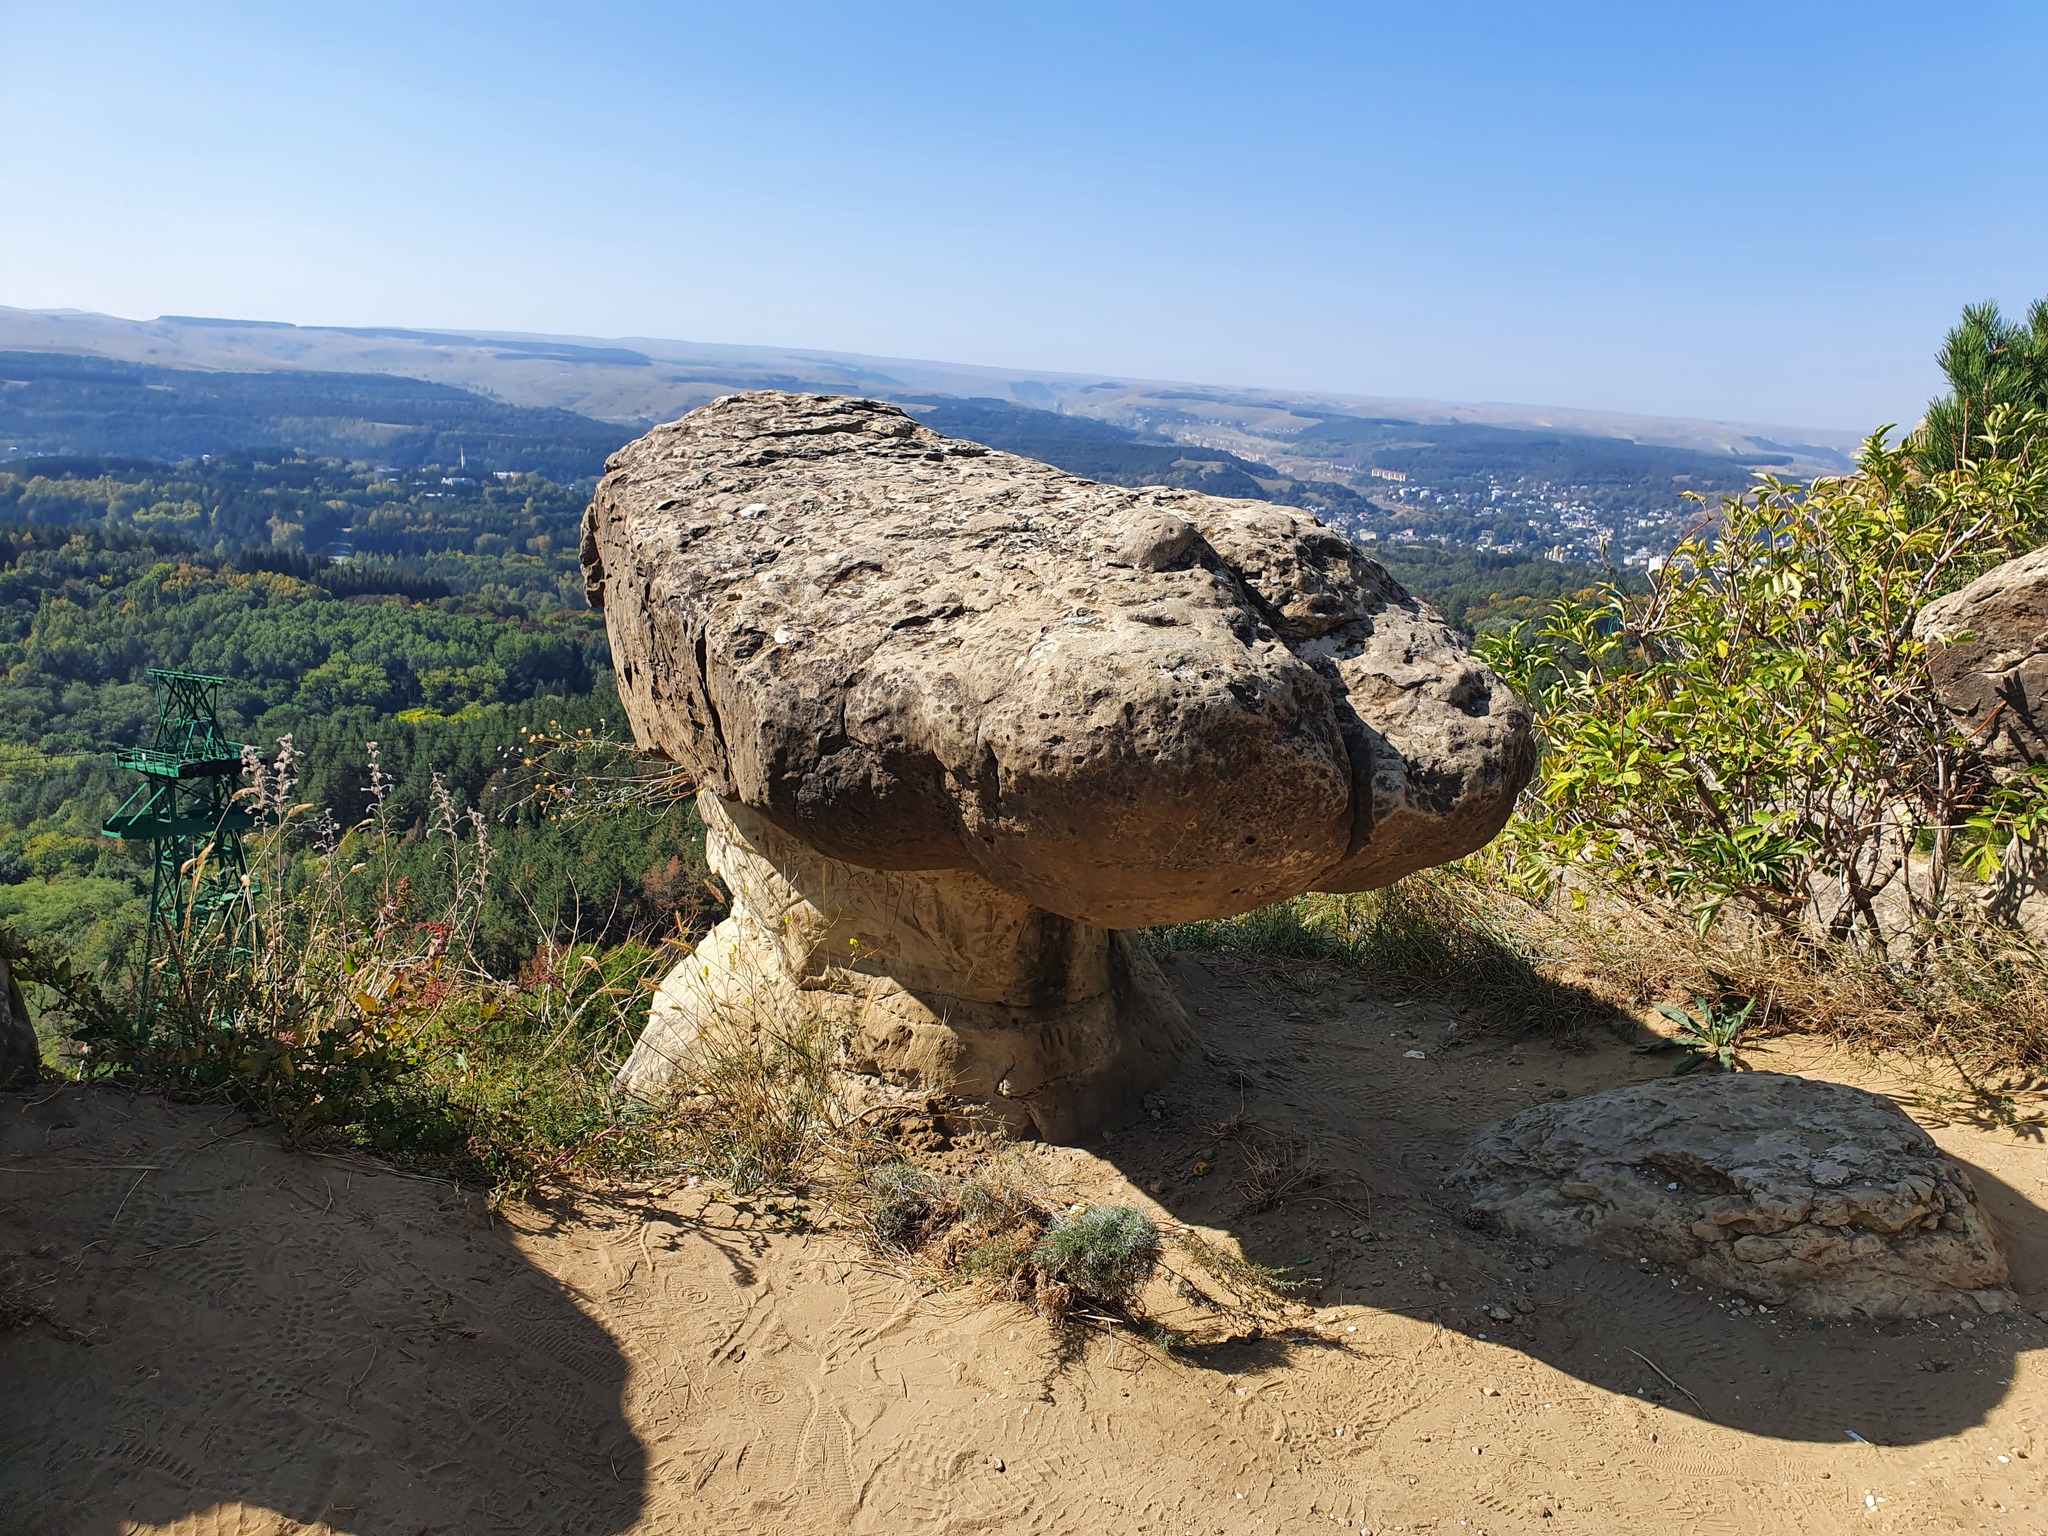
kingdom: Plantae
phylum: Tracheophyta
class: Magnoliopsida
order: Dipsacales
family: Viburnaceae
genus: Sambucus
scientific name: Sambucus nigra
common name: Elder
